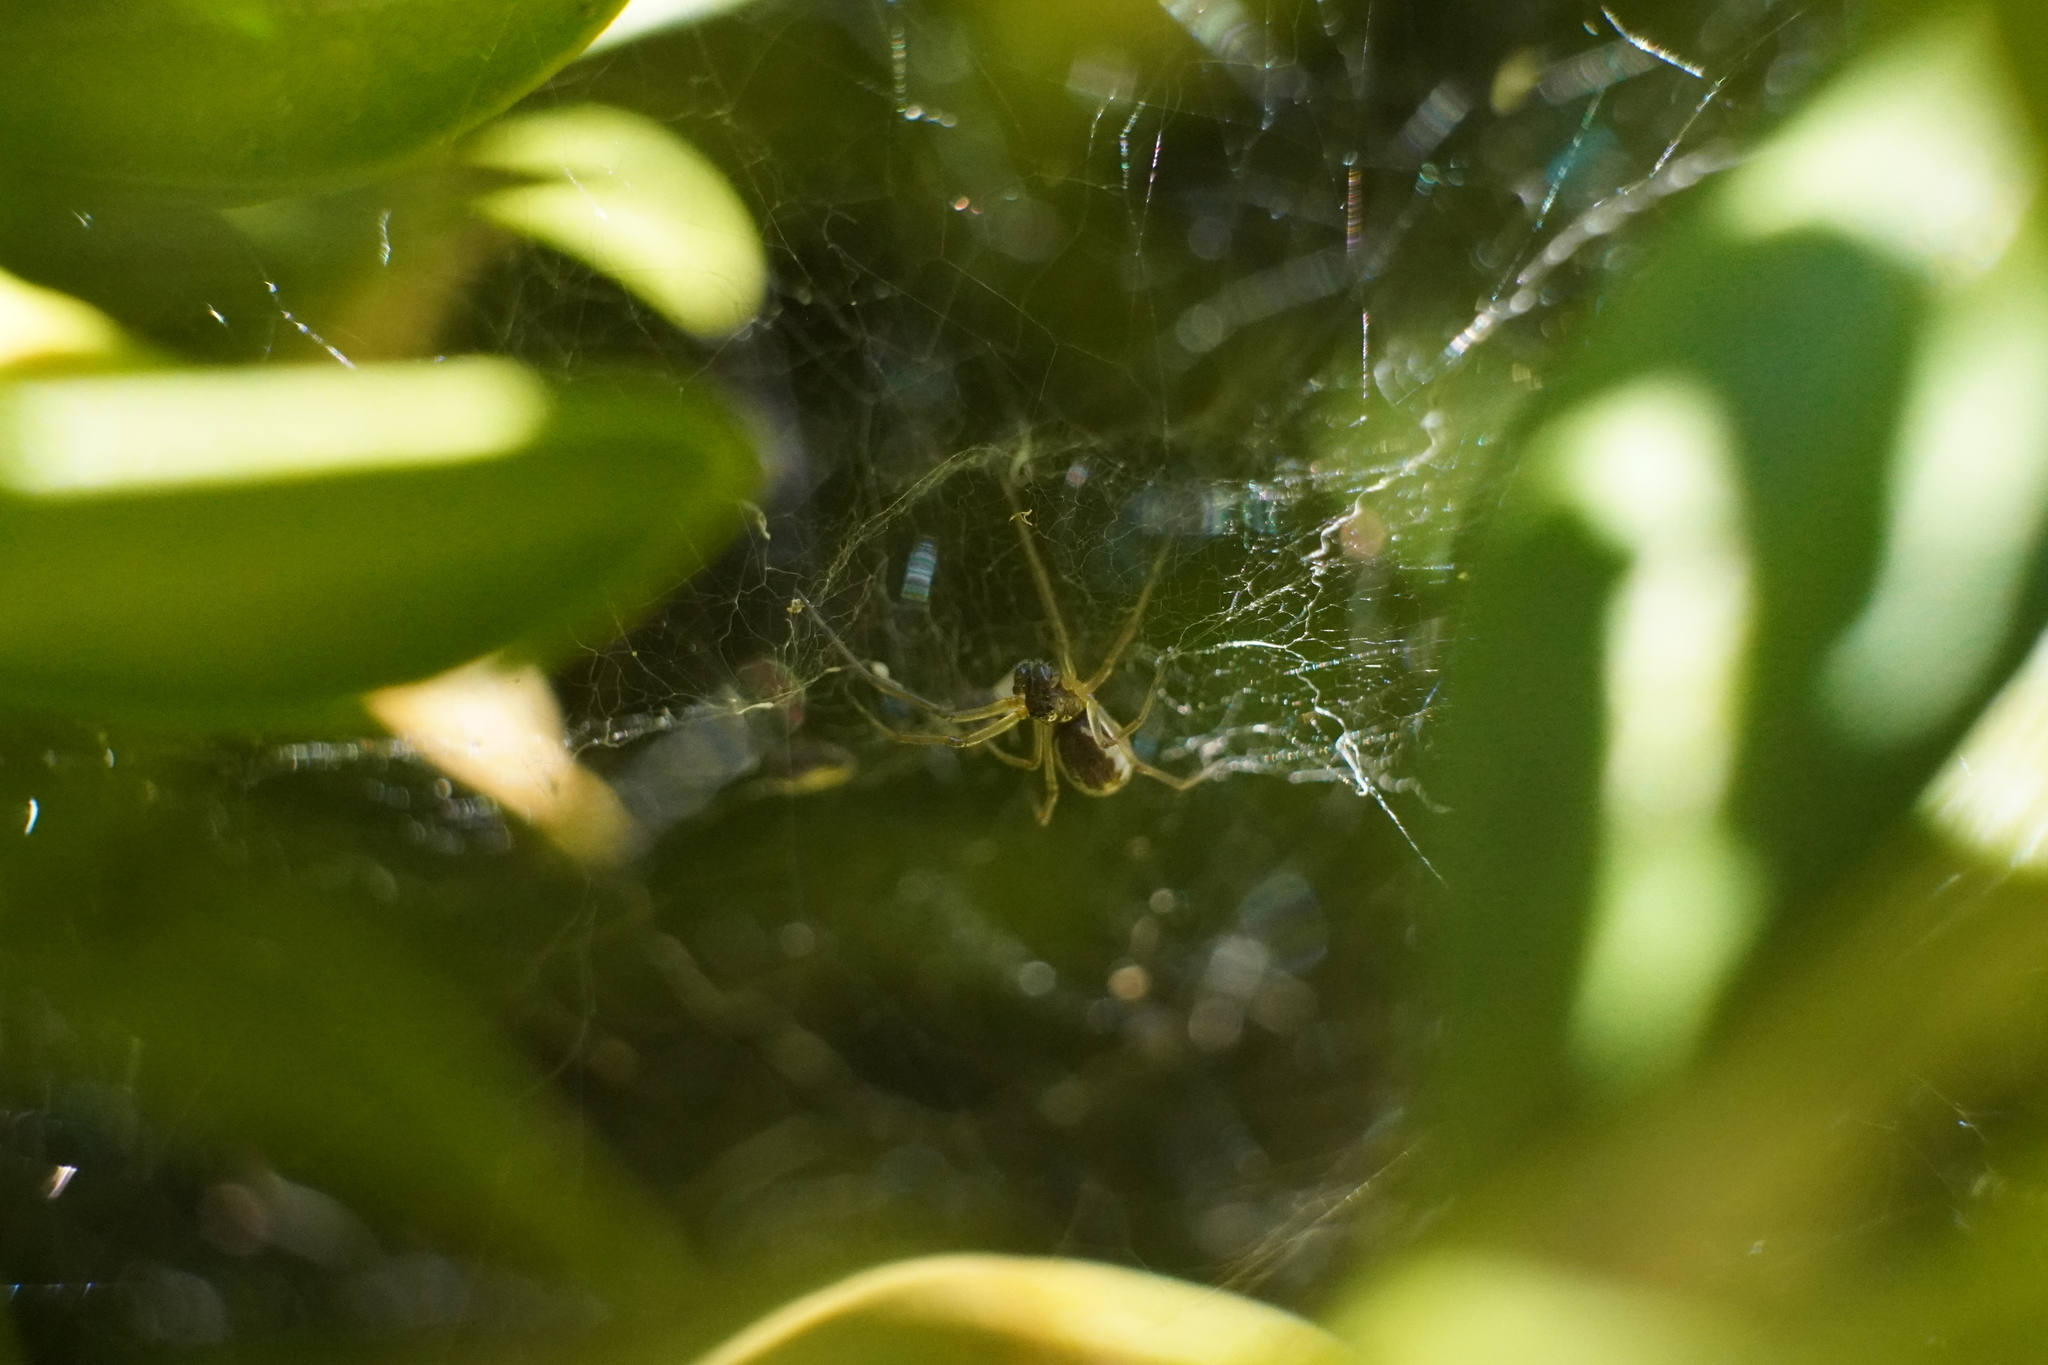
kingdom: Animalia
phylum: Arthropoda
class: Arachnida
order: Araneae
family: Linyphiidae
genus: Frontinella
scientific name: Frontinella pyramitela
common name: Bowl-and-doily spider
